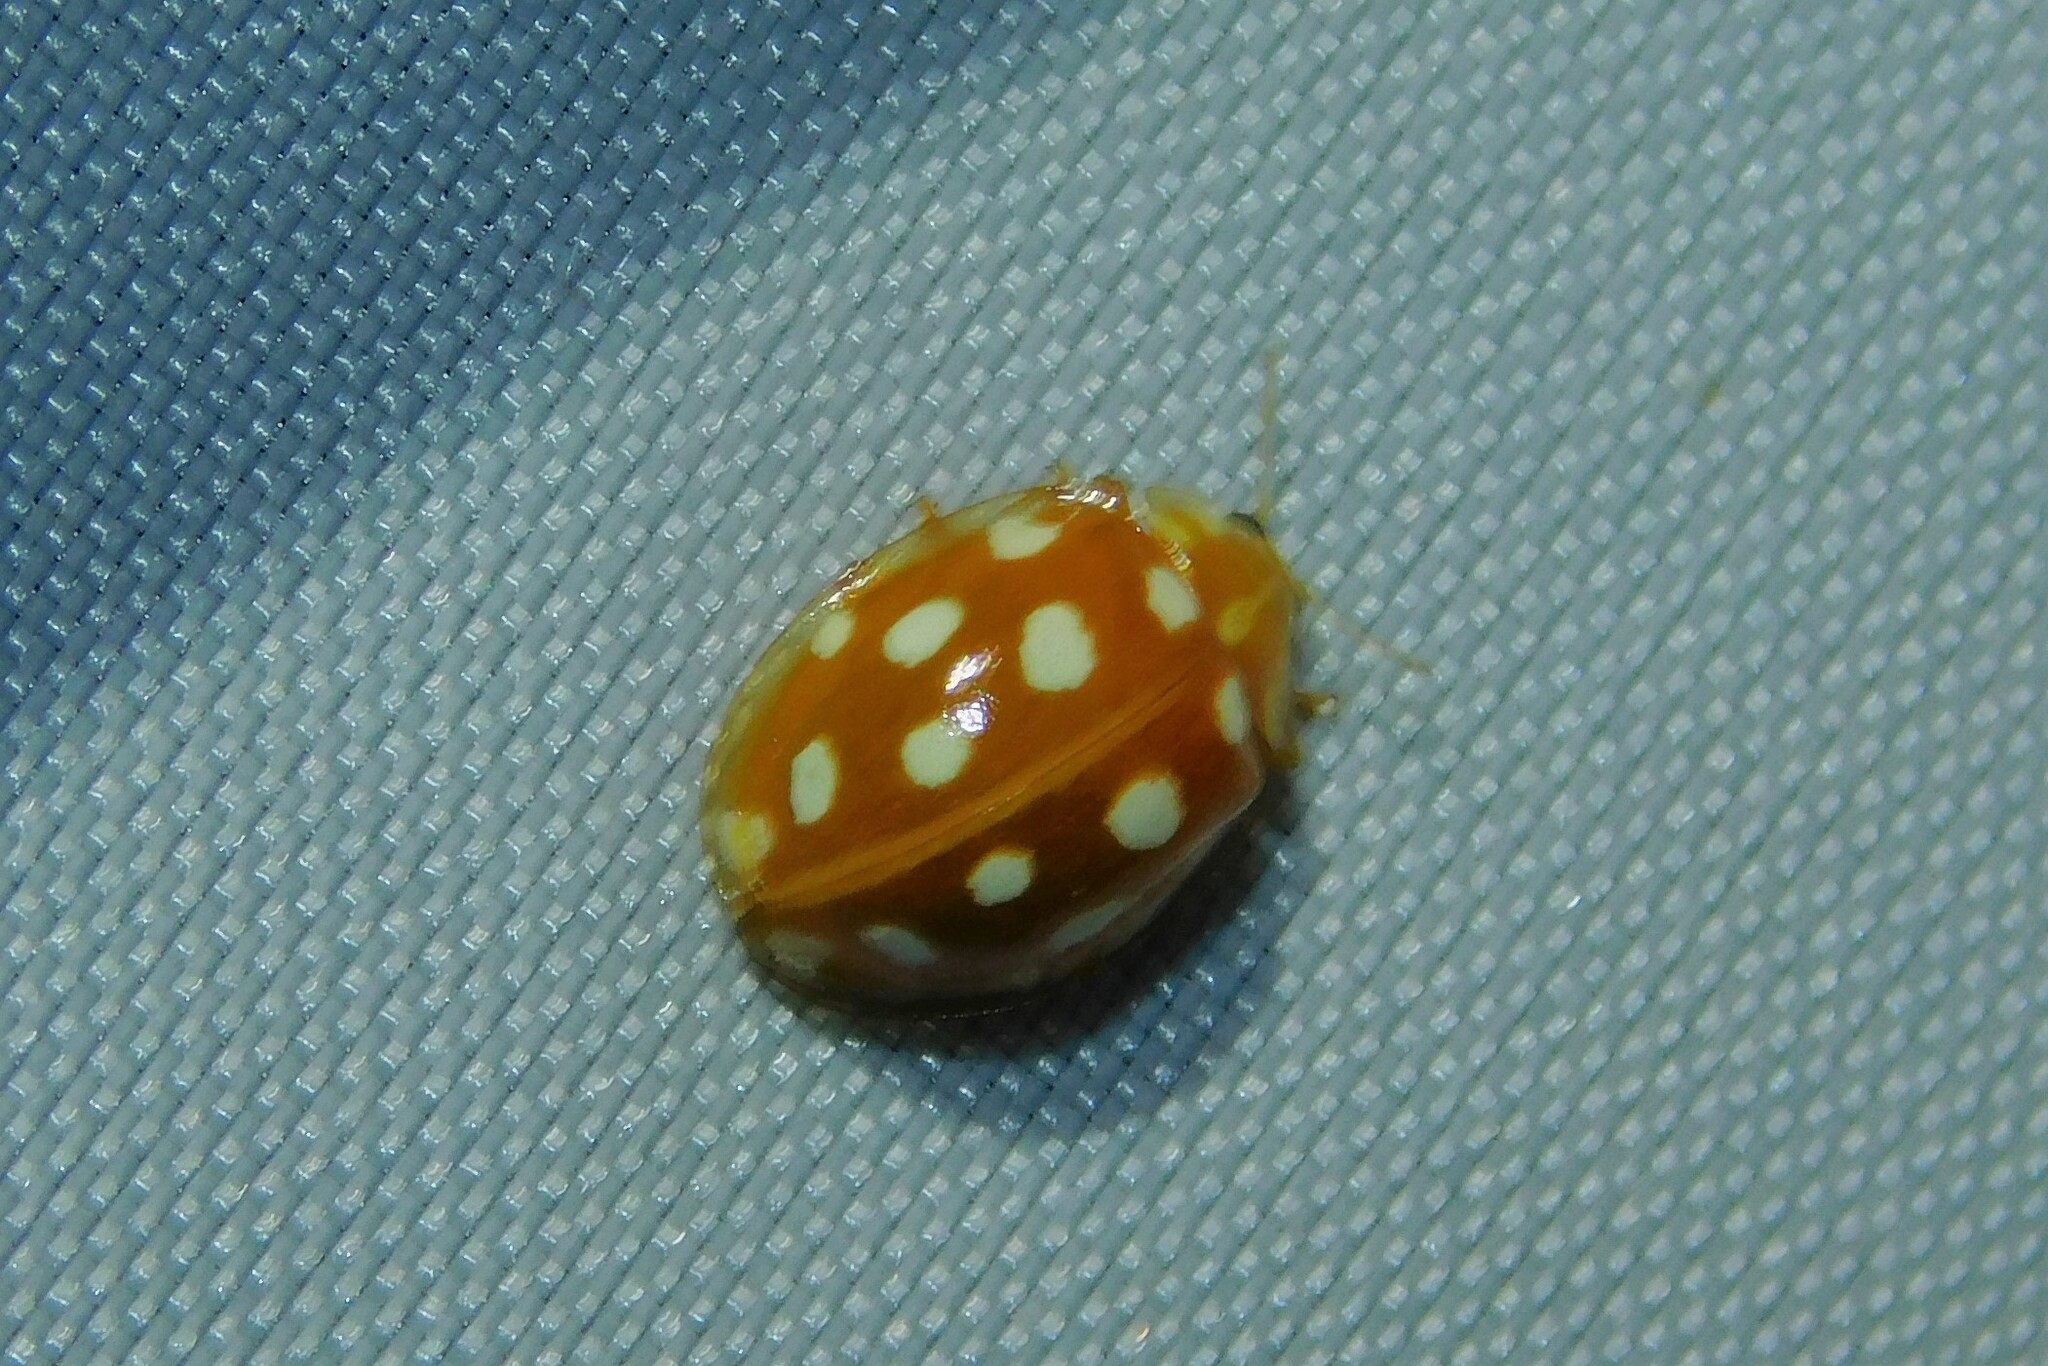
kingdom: Animalia
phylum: Arthropoda
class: Insecta
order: Coleoptera
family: Coccinellidae
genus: Halyzia
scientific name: Halyzia sedecimguttata
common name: Orange ladybird
